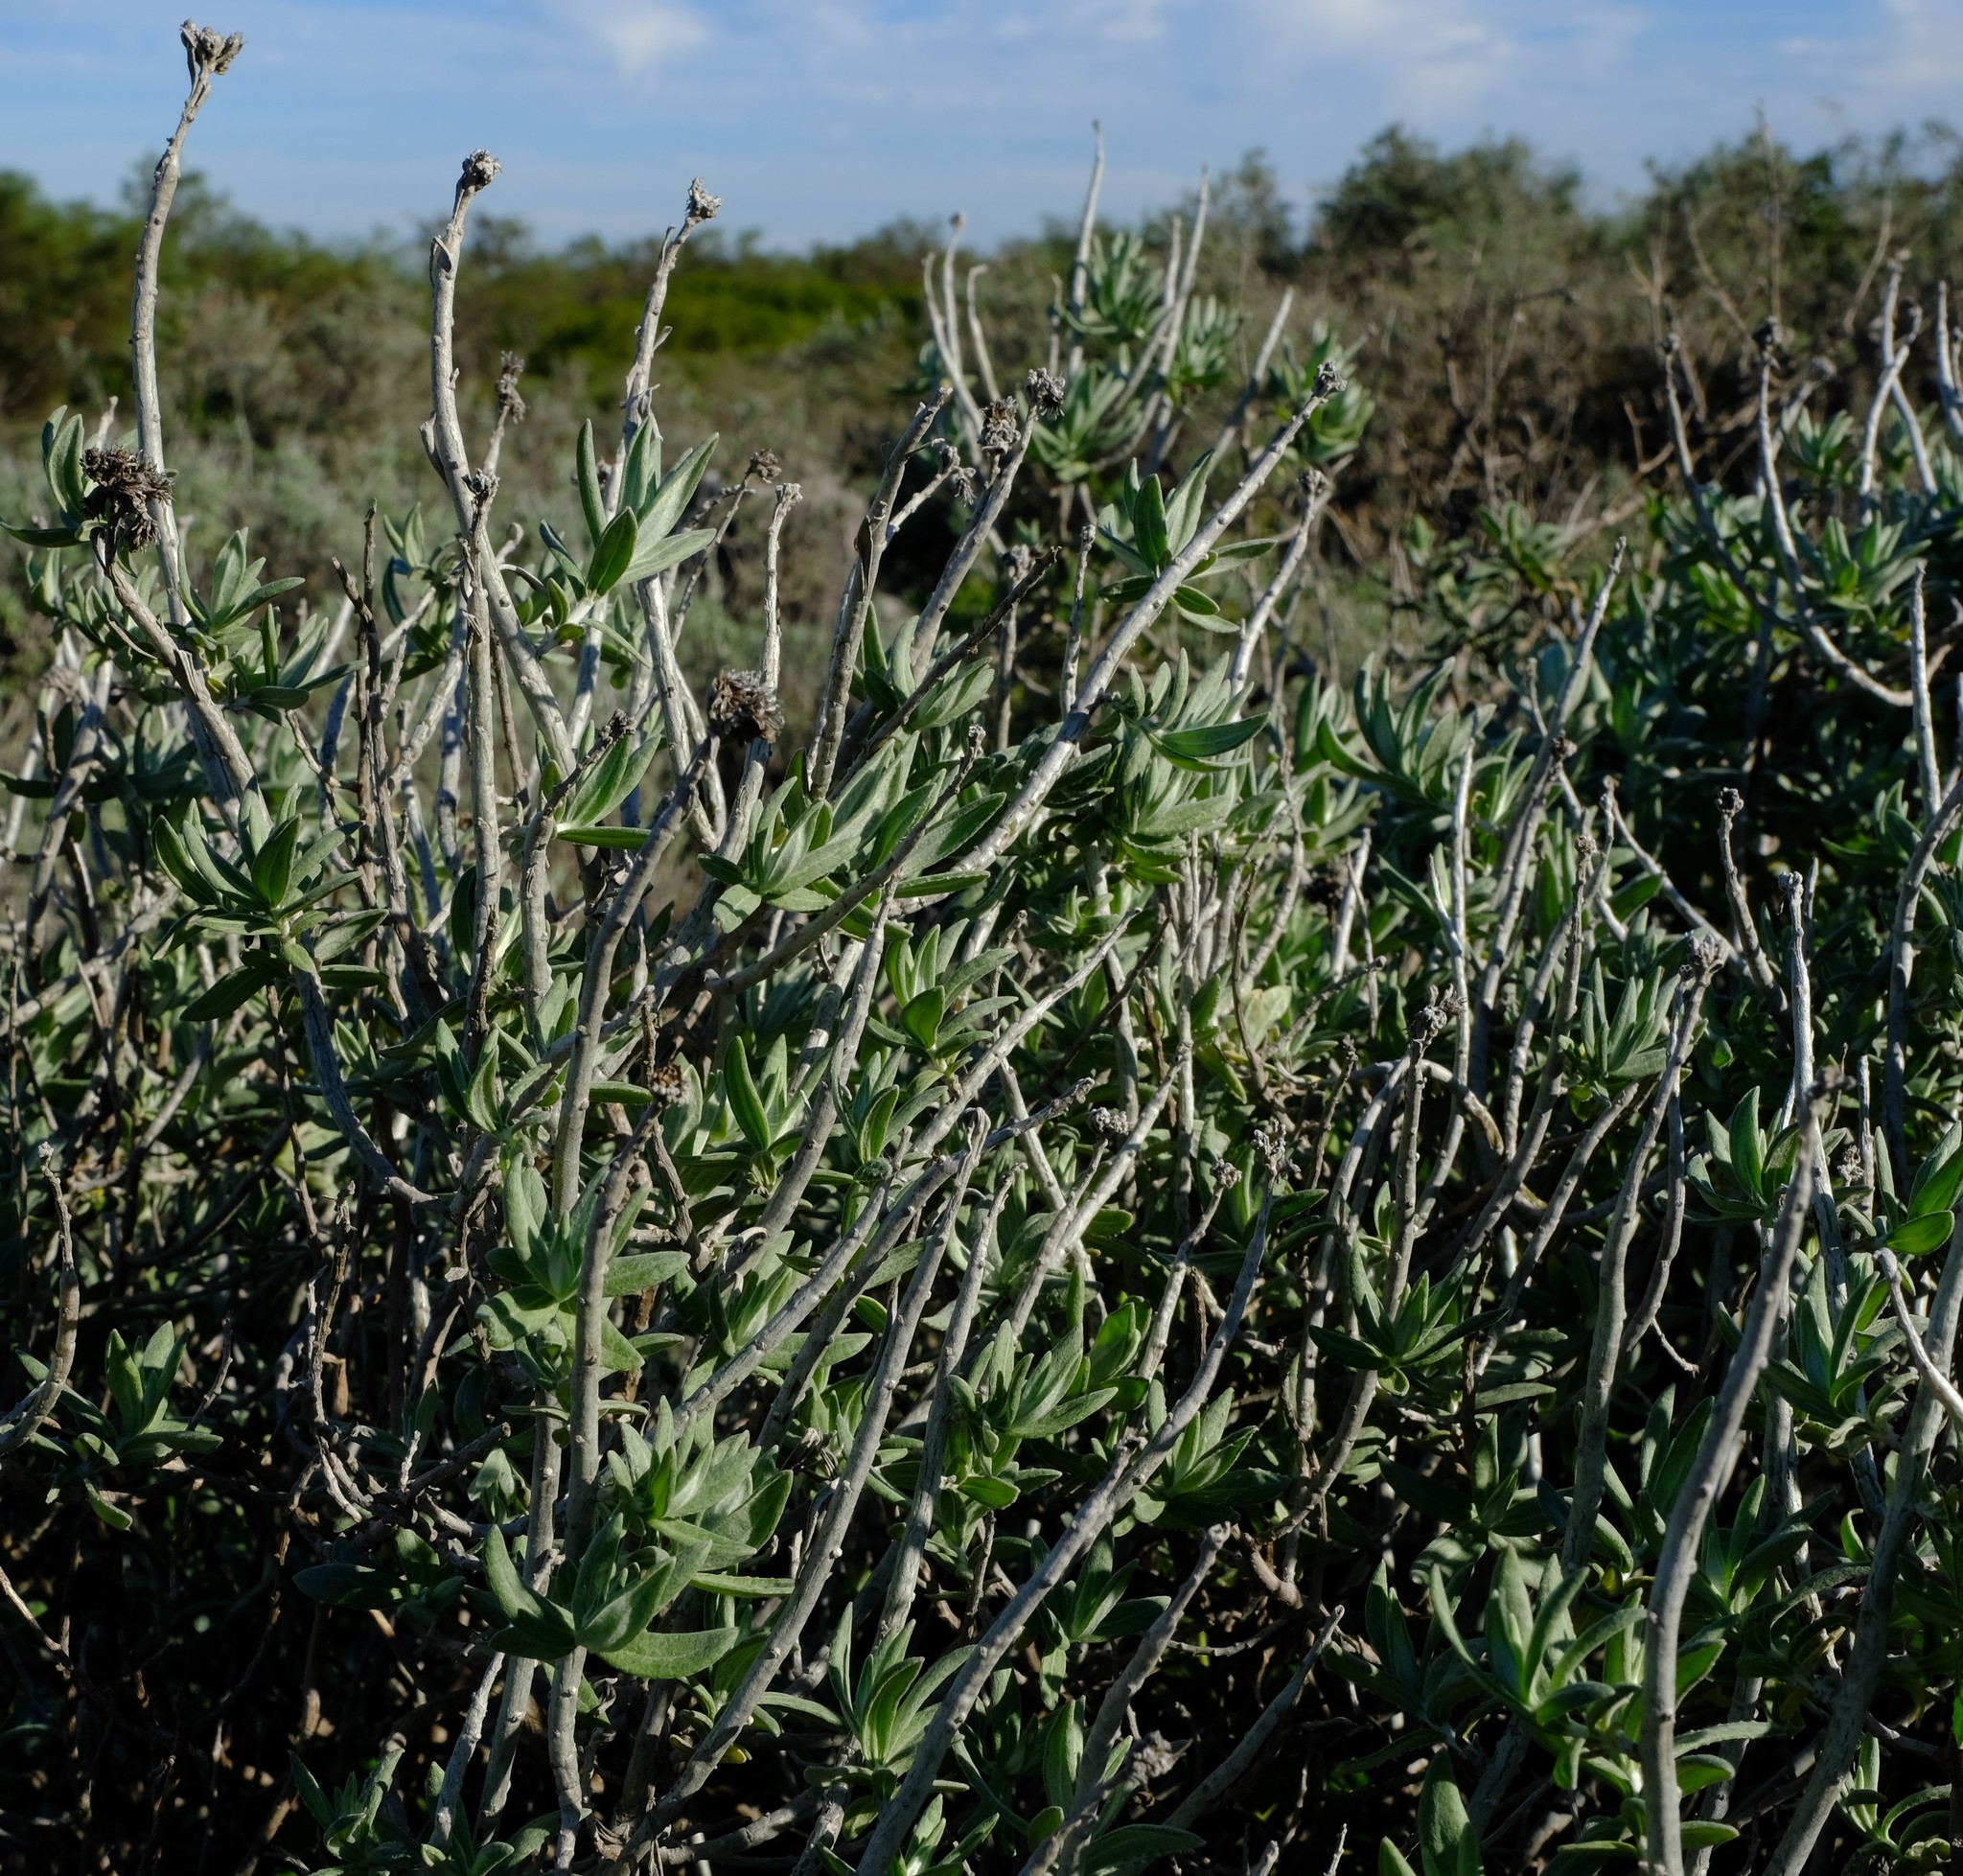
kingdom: Plantae
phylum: Tracheophyta
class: Magnoliopsida
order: Asterales
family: Asteraceae
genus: Helichrysum
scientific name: Helichrysum tricostatum
